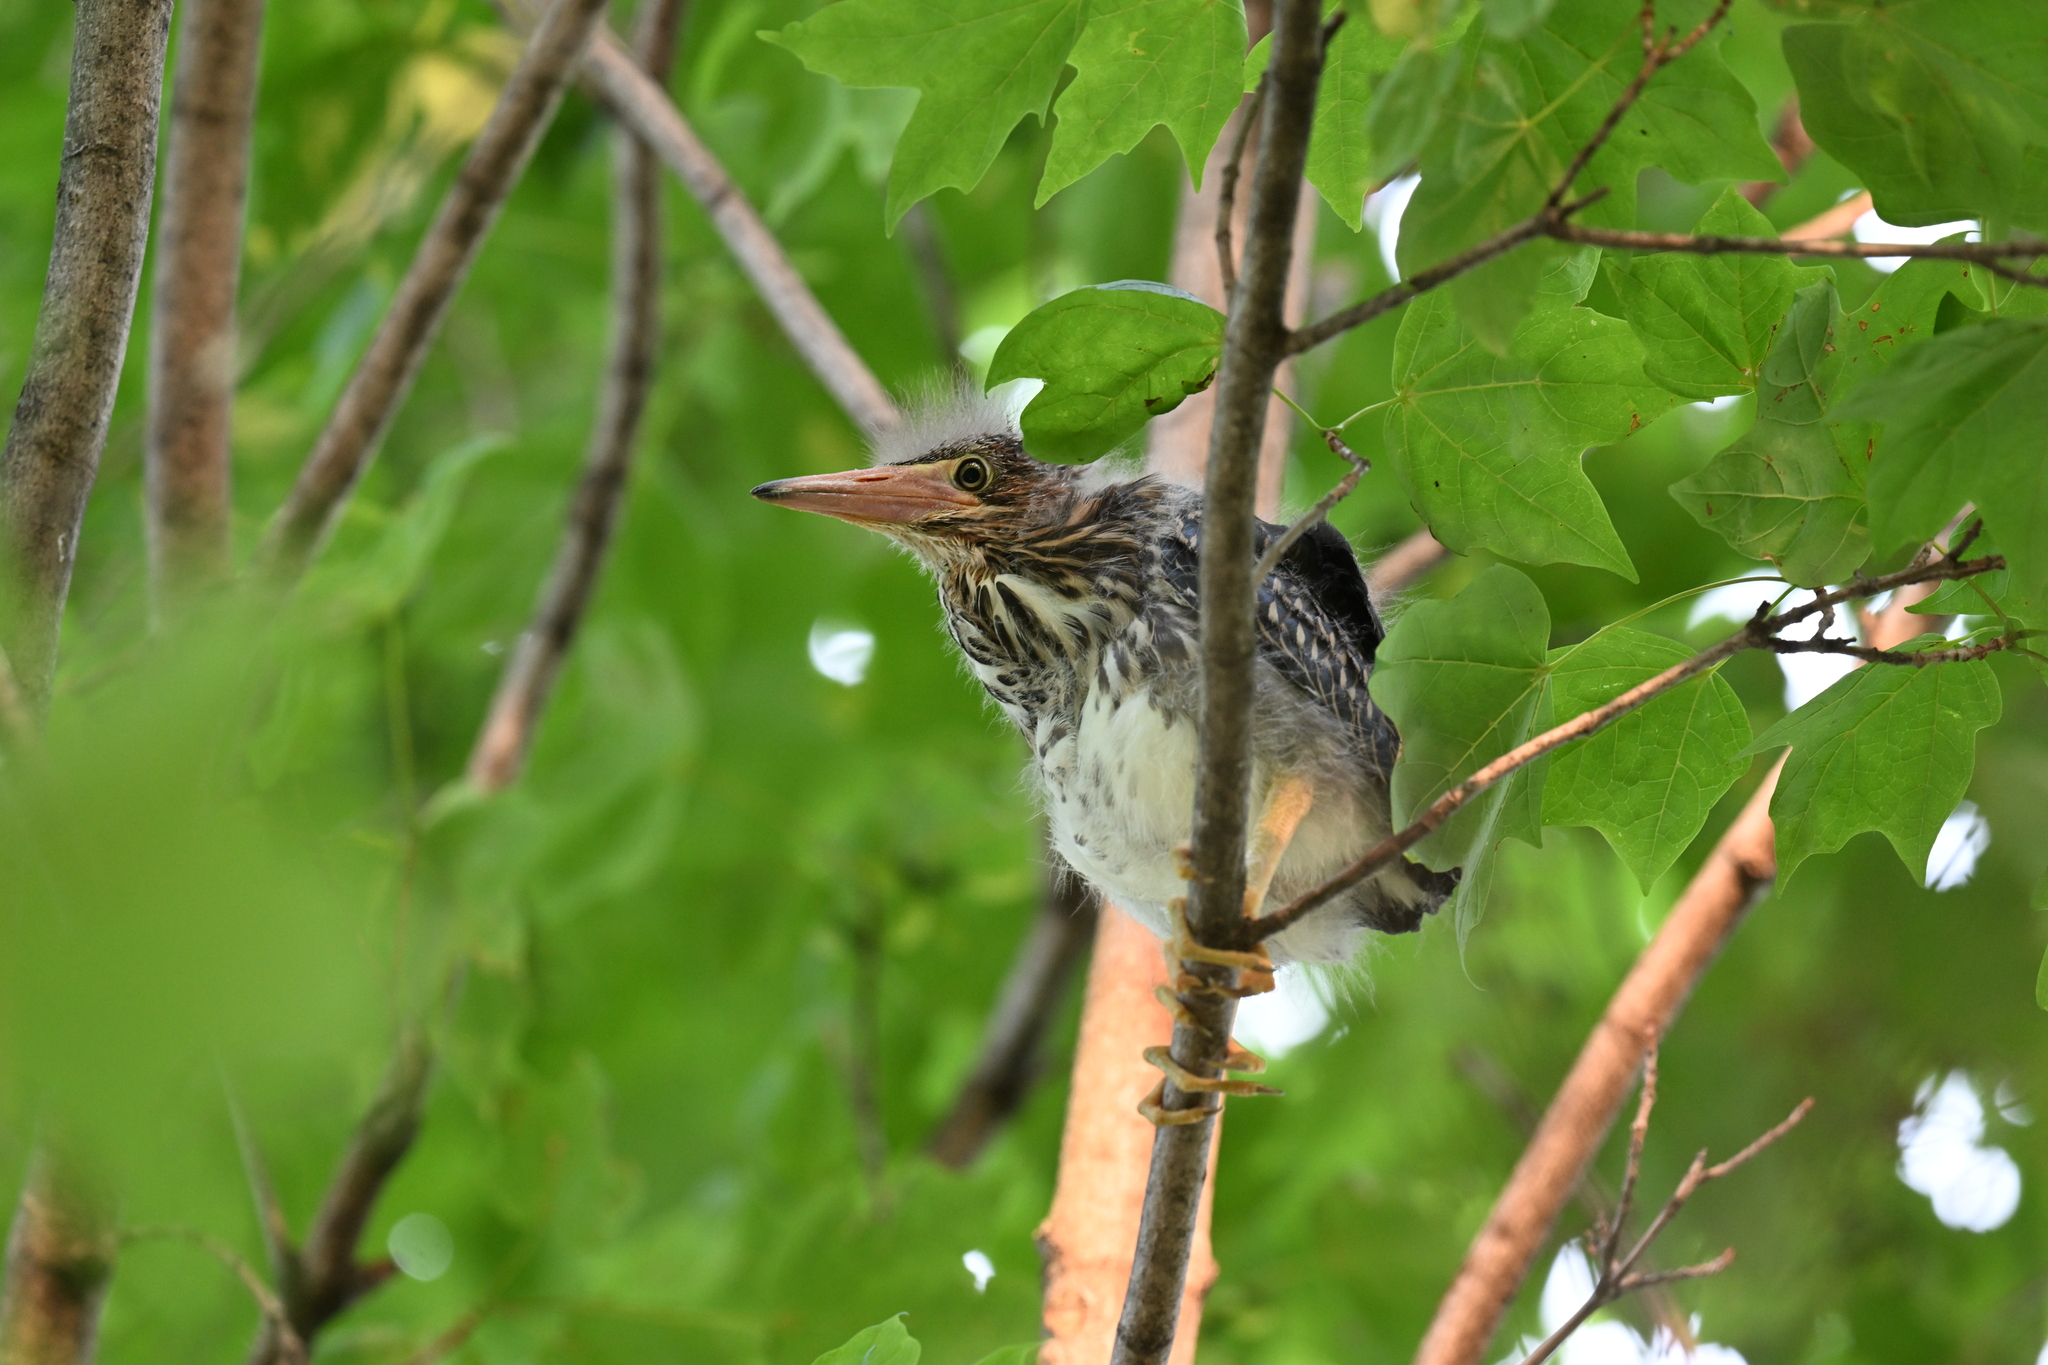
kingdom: Animalia
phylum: Chordata
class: Aves
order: Pelecaniformes
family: Ardeidae
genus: Butorides
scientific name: Butorides virescens
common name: Green heron
